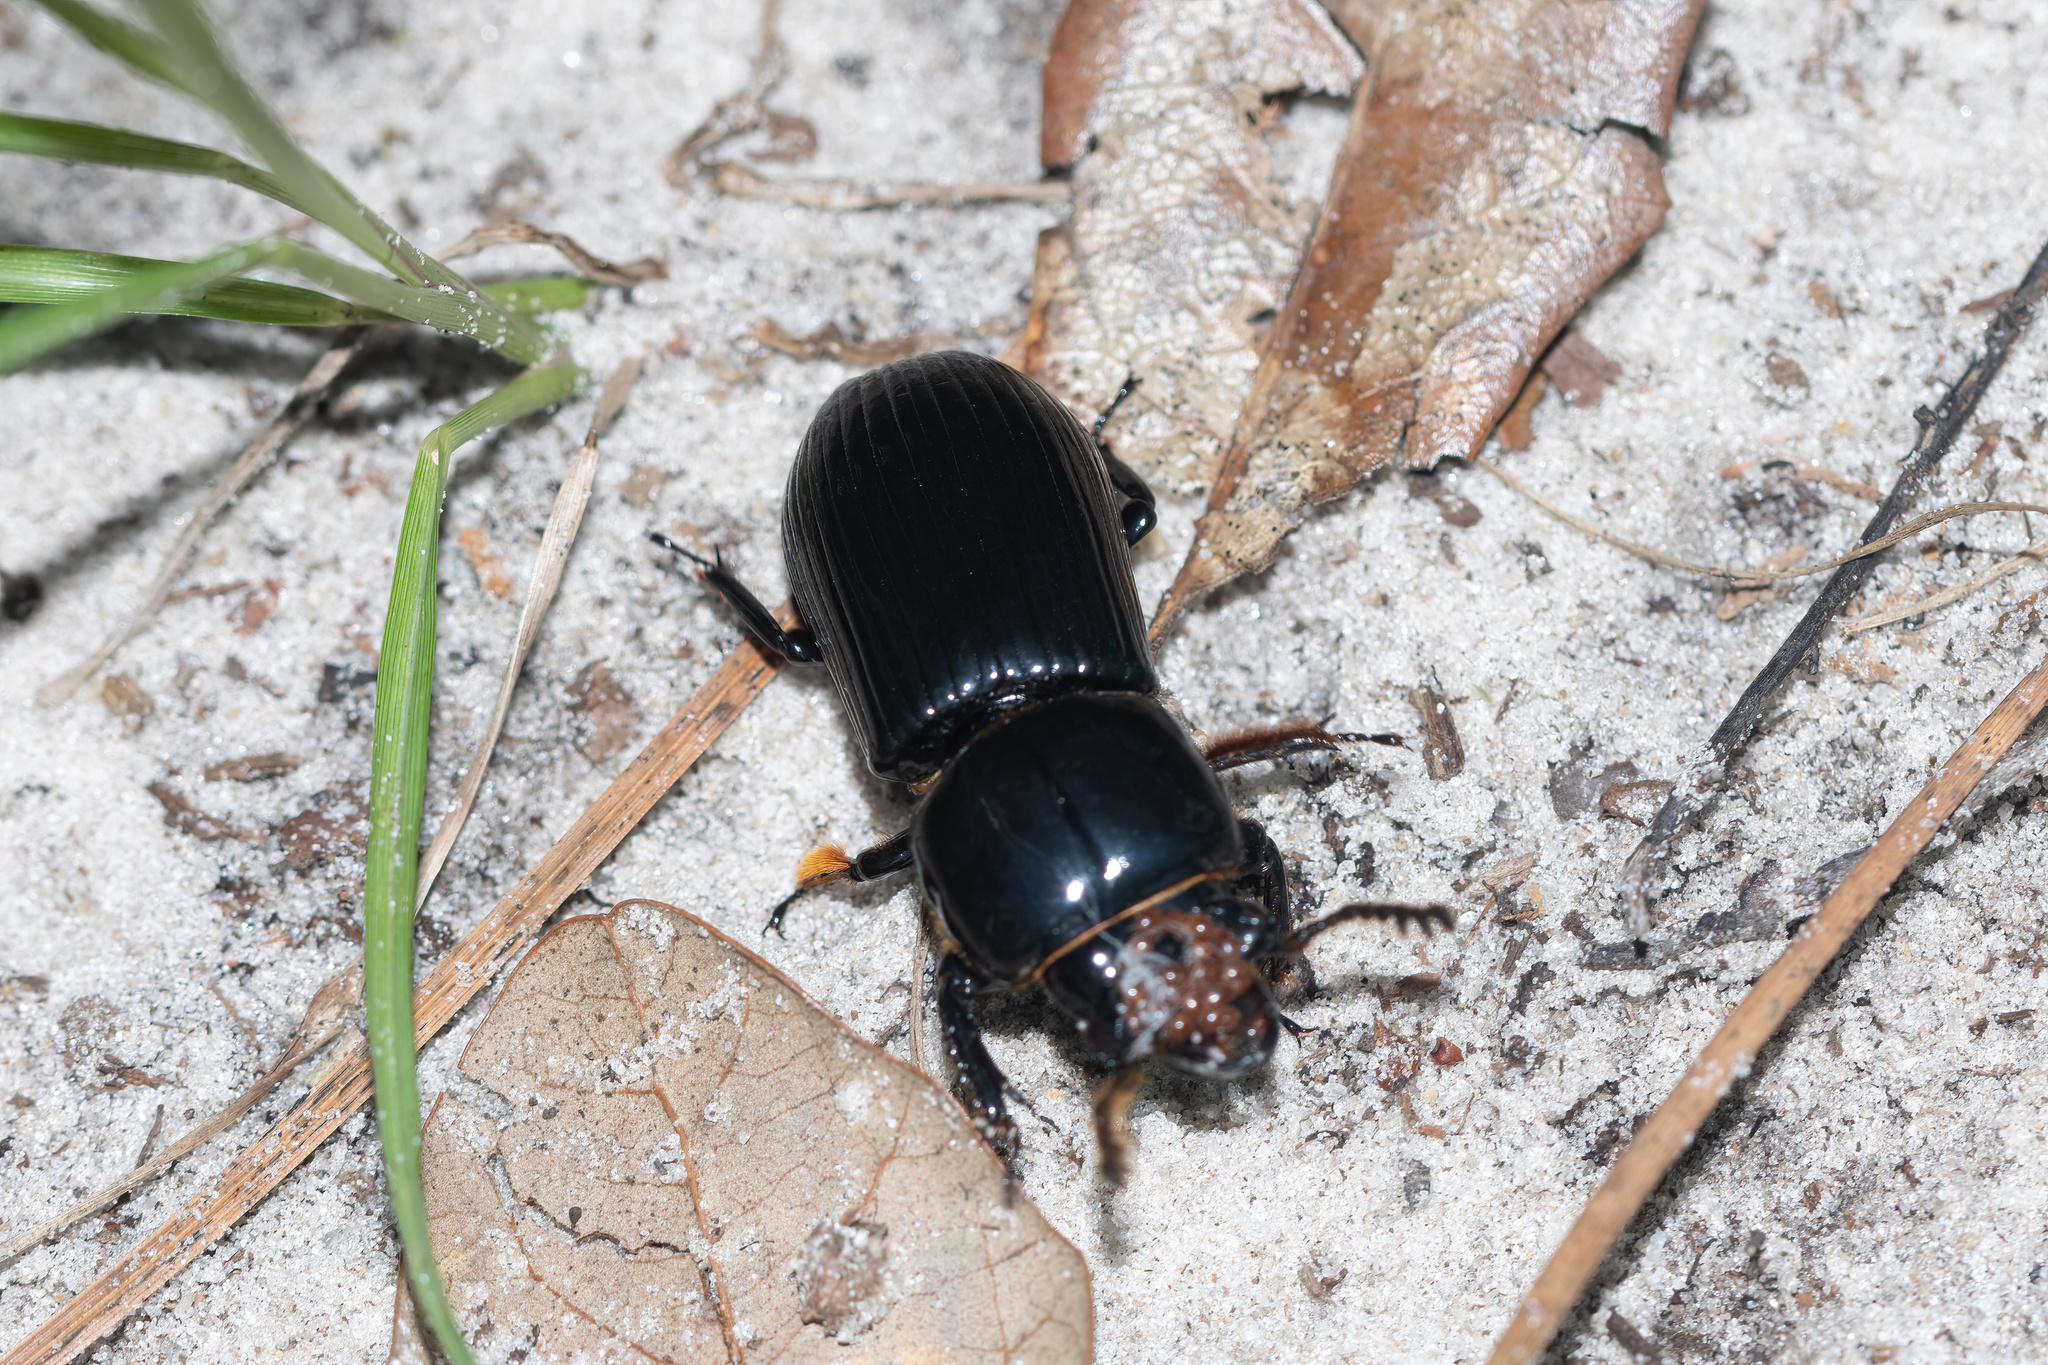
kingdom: Animalia
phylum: Arthropoda
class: Insecta
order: Coleoptera
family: Passalidae
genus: Odontotaenius
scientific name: Odontotaenius disjunctus
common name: Patent leather beetle
